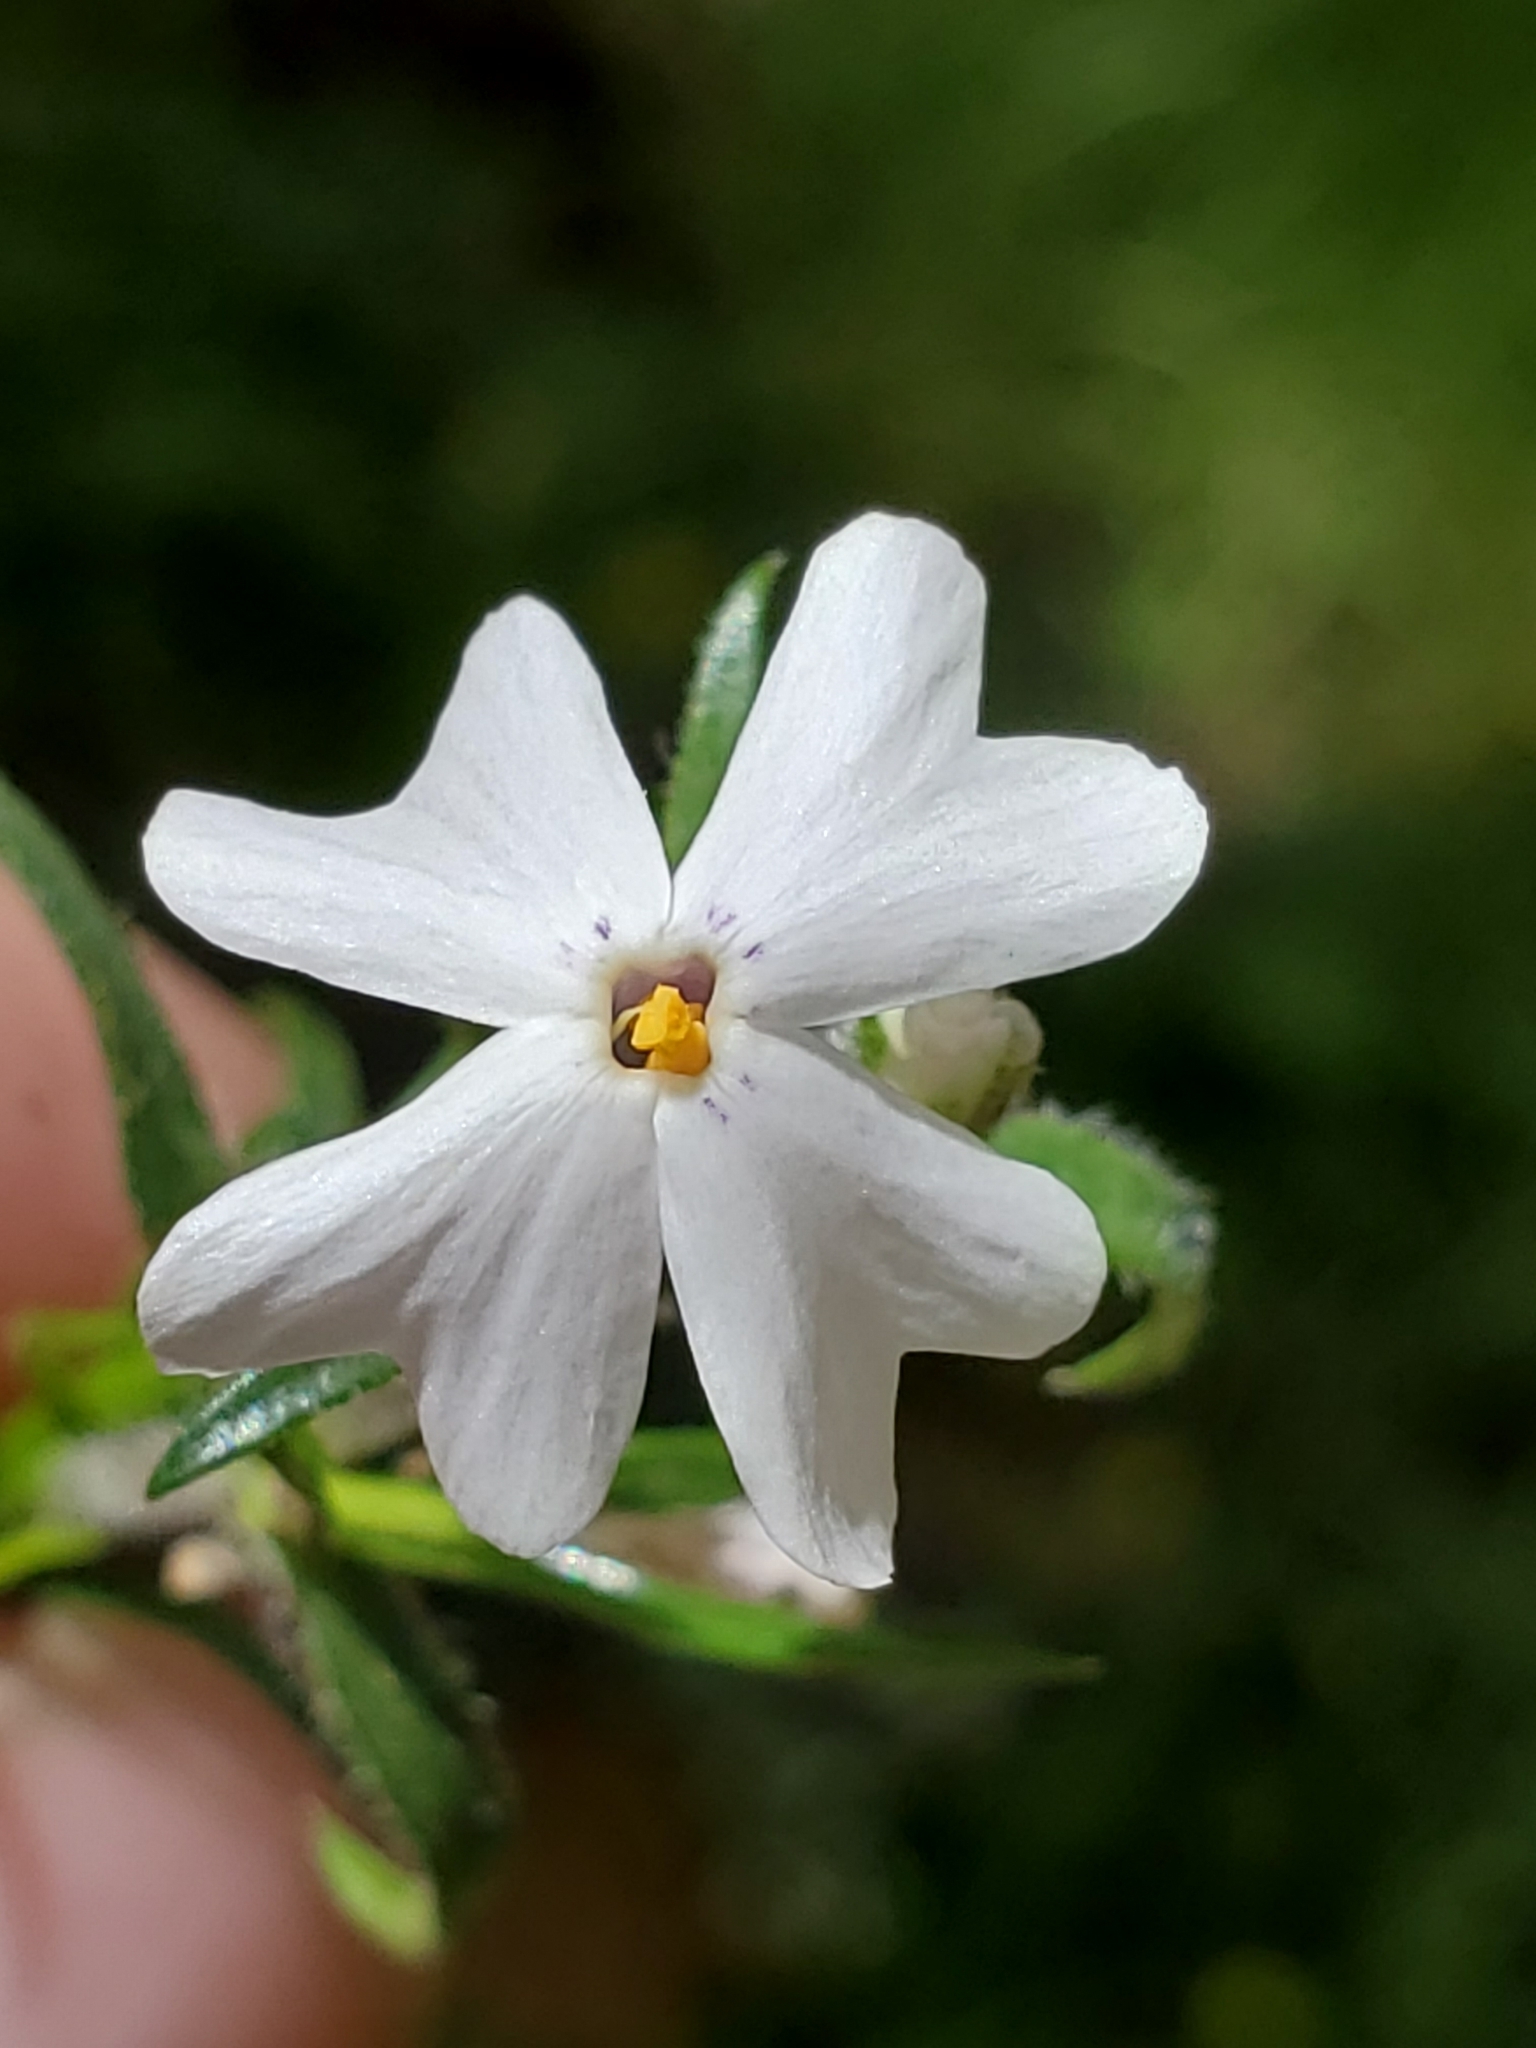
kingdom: Plantae
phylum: Tracheophyta
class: Magnoliopsida
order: Ericales
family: Polemoniaceae
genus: Phlox
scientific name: Phlox subulata
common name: Moss phlox
